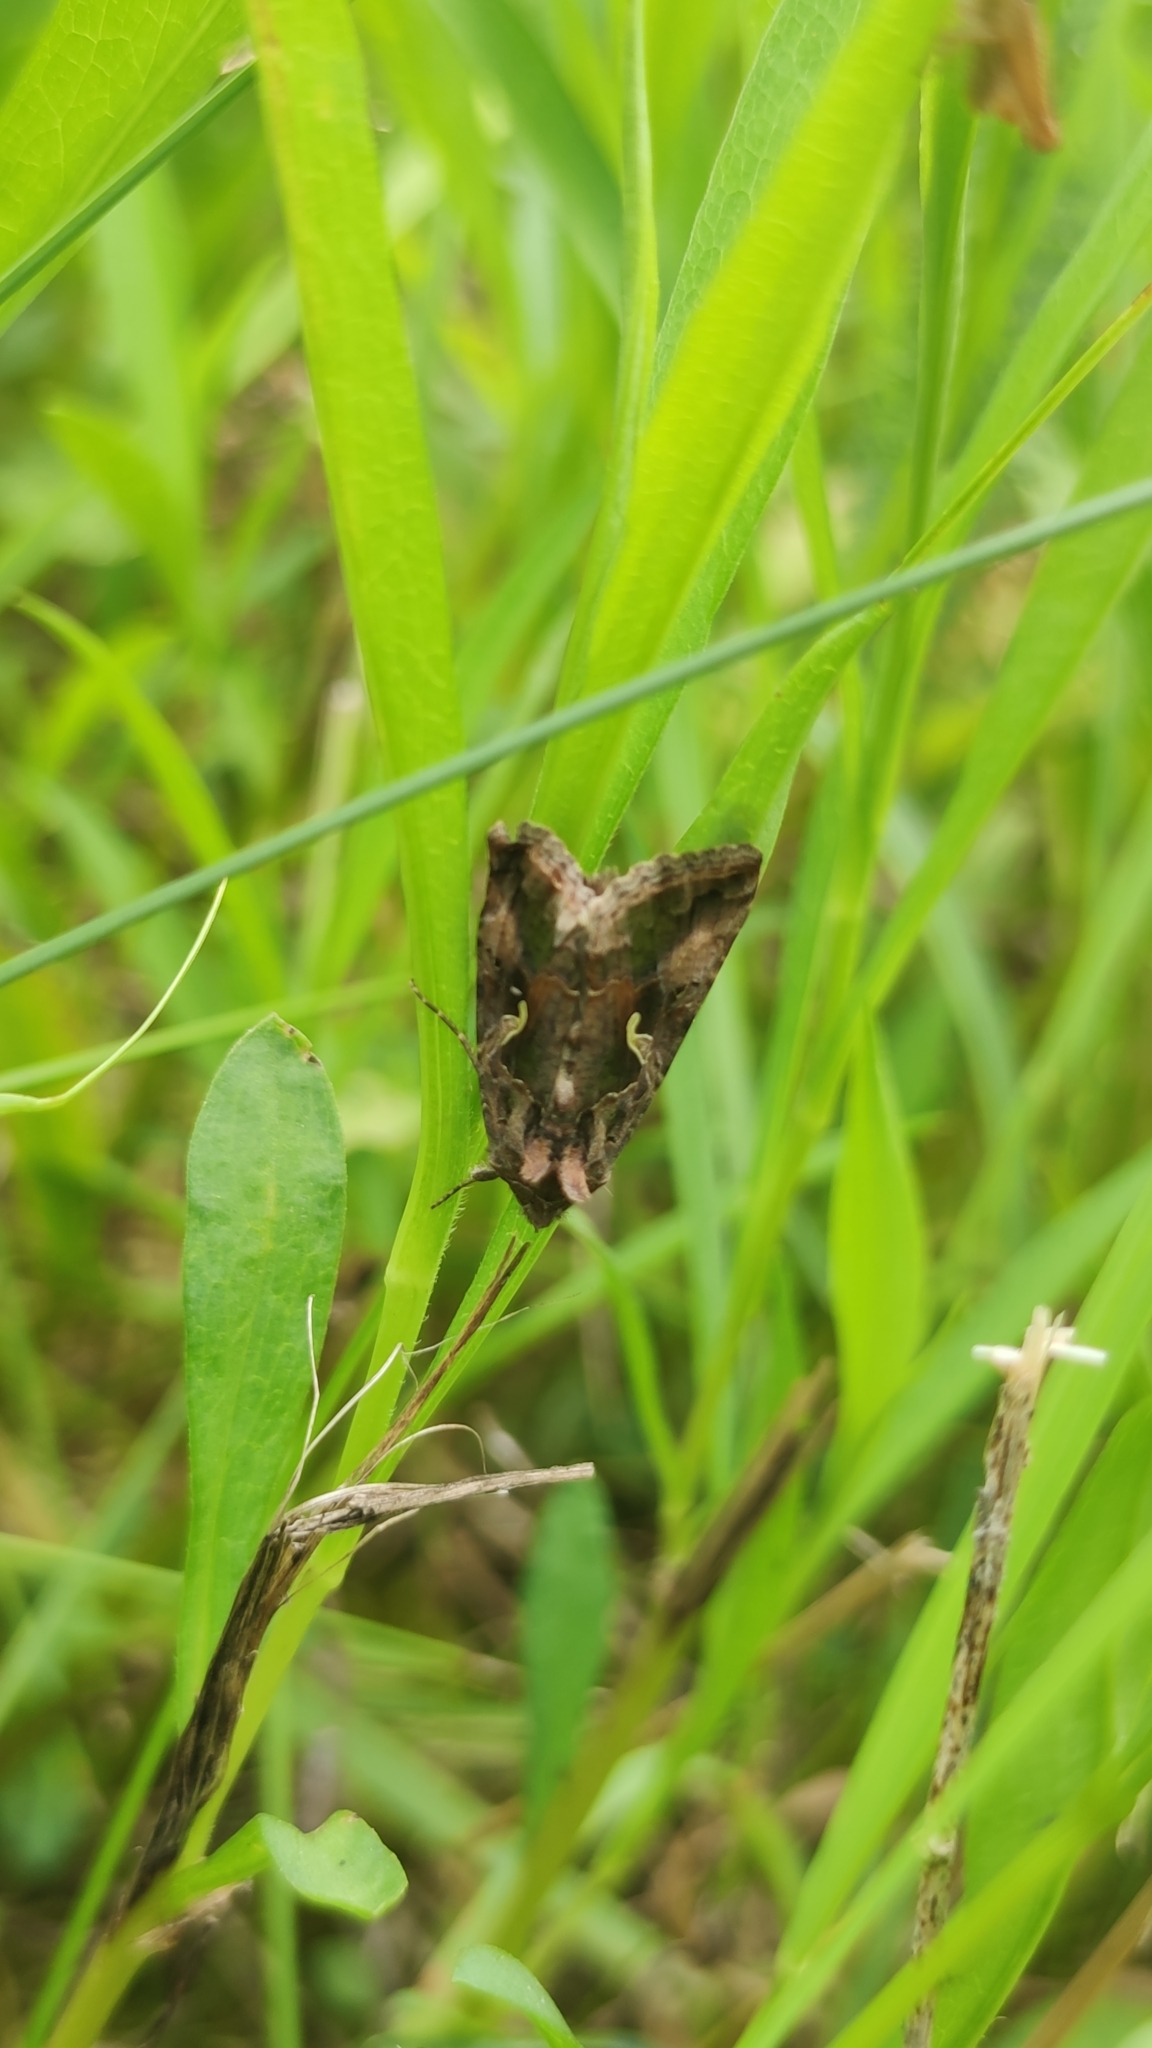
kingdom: Animalia
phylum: Arthropoda
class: Insecta
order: Lepidoptera
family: Noctuidae
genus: Autographa
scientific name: Autographa gamma
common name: Silver y
